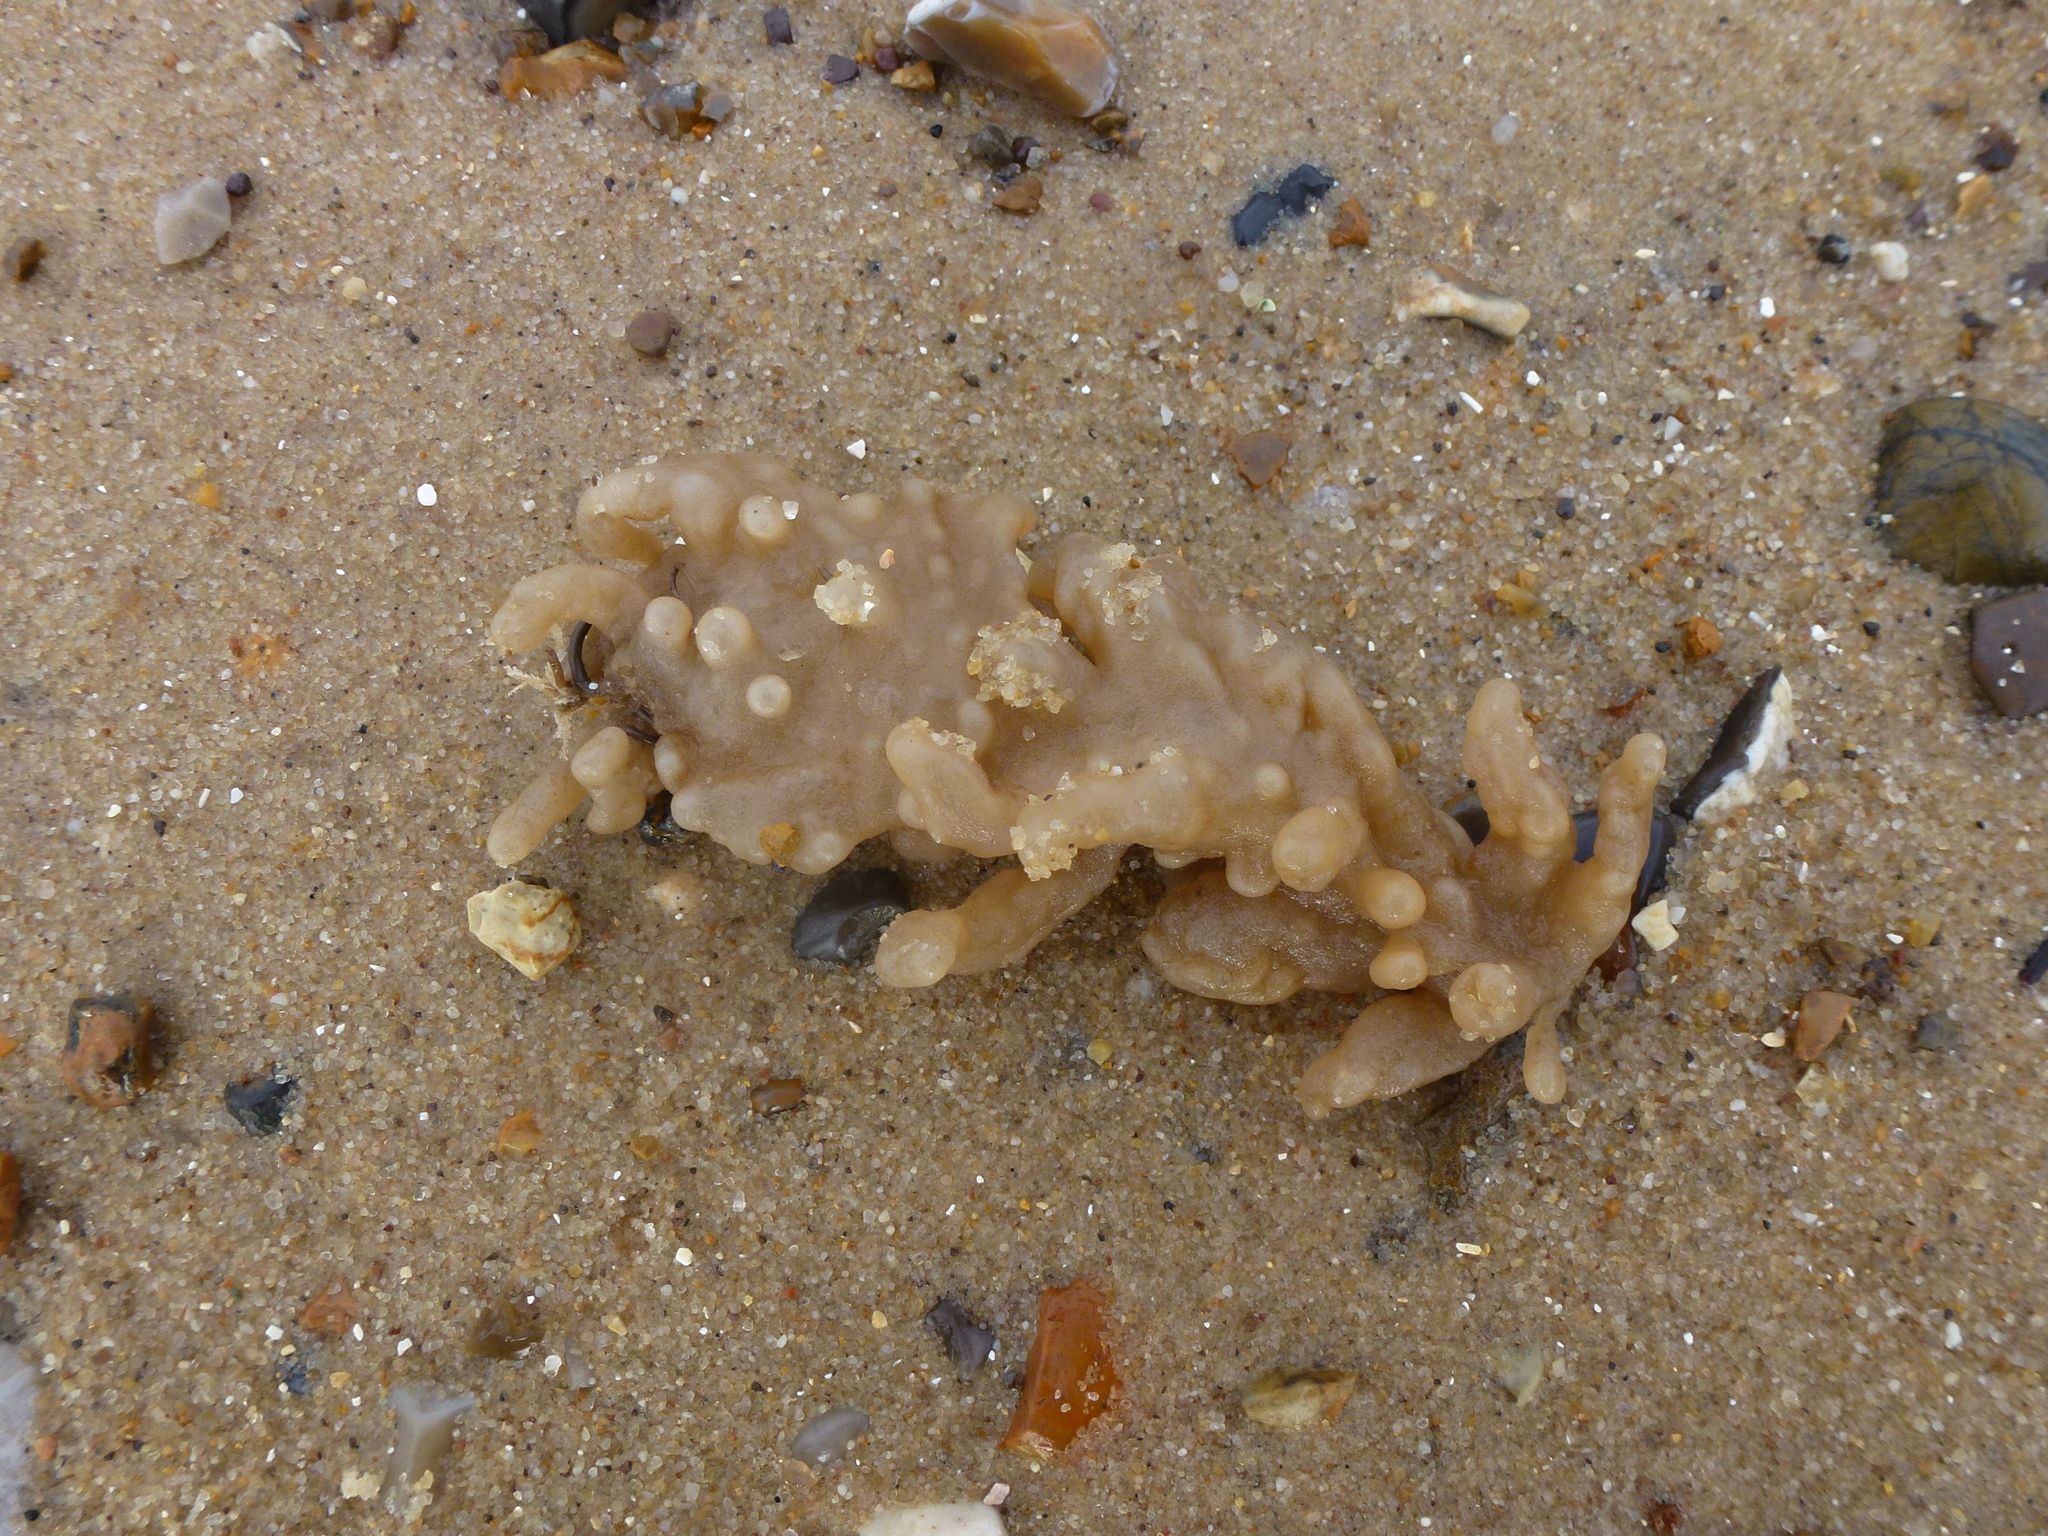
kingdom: Animalia
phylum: Bryozoa
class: Gymnolaemata
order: Ctenostomatida
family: Alcyonidiidae
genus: Alcyonidium
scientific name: Alcyonidium diaphanum
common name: Sea chervil
